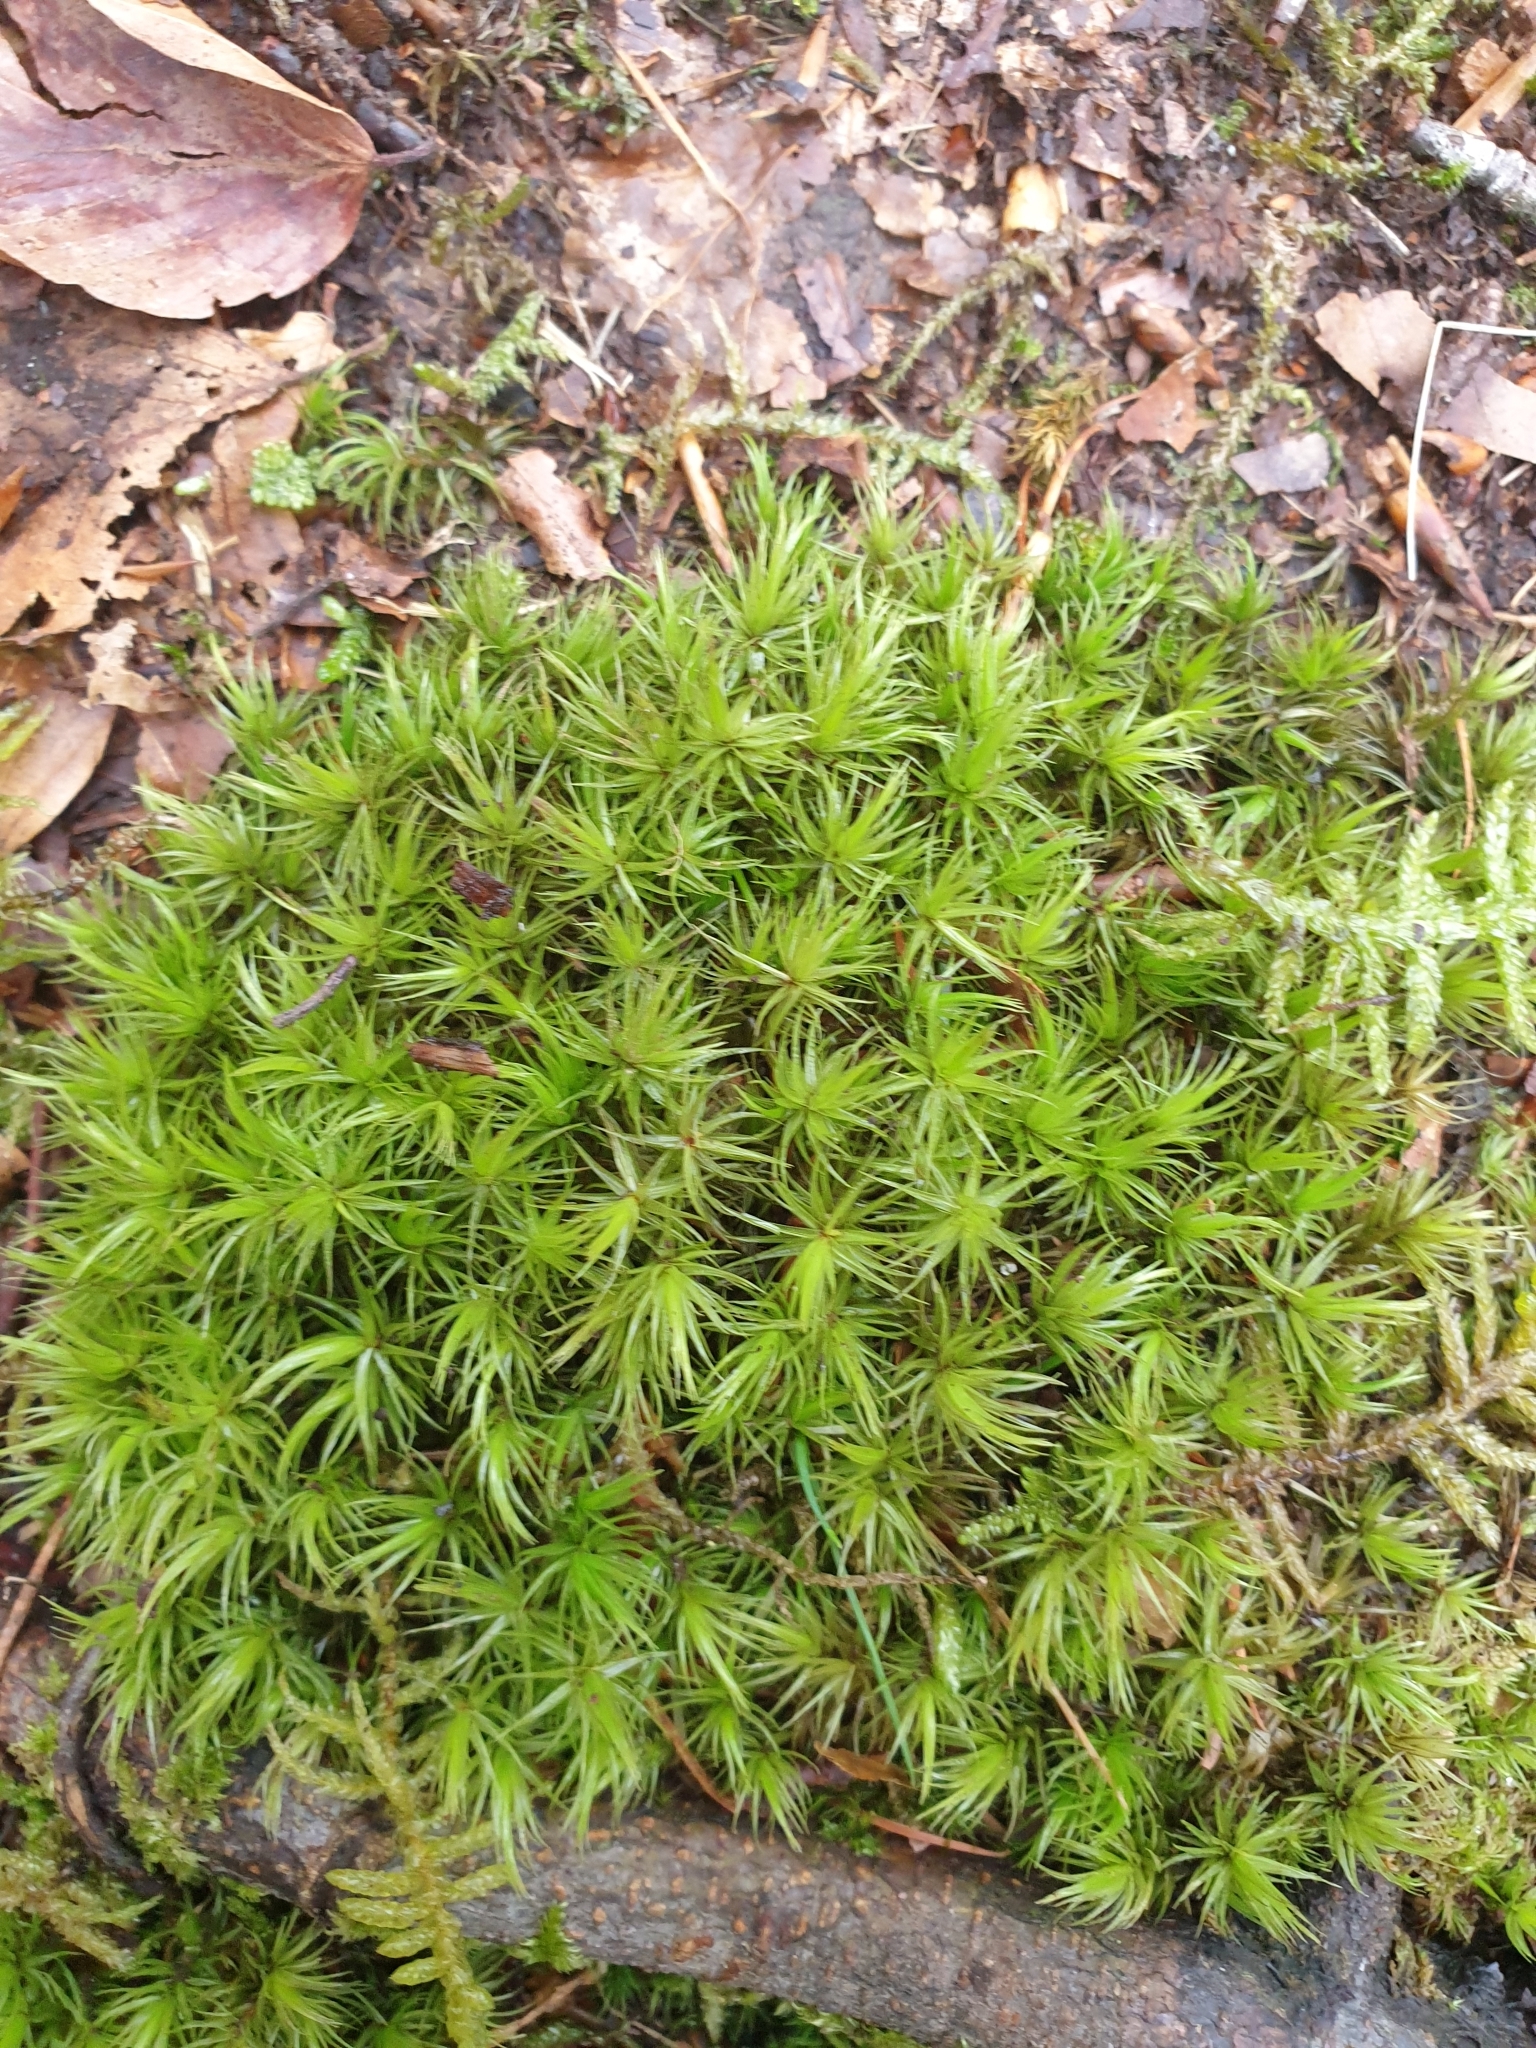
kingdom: Plantae
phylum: Bryophyta
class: Bryopsida
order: Dicranales
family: Dicranaceae
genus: Dicranum
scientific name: Dicranum scoparium
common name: Broom fork-moss
